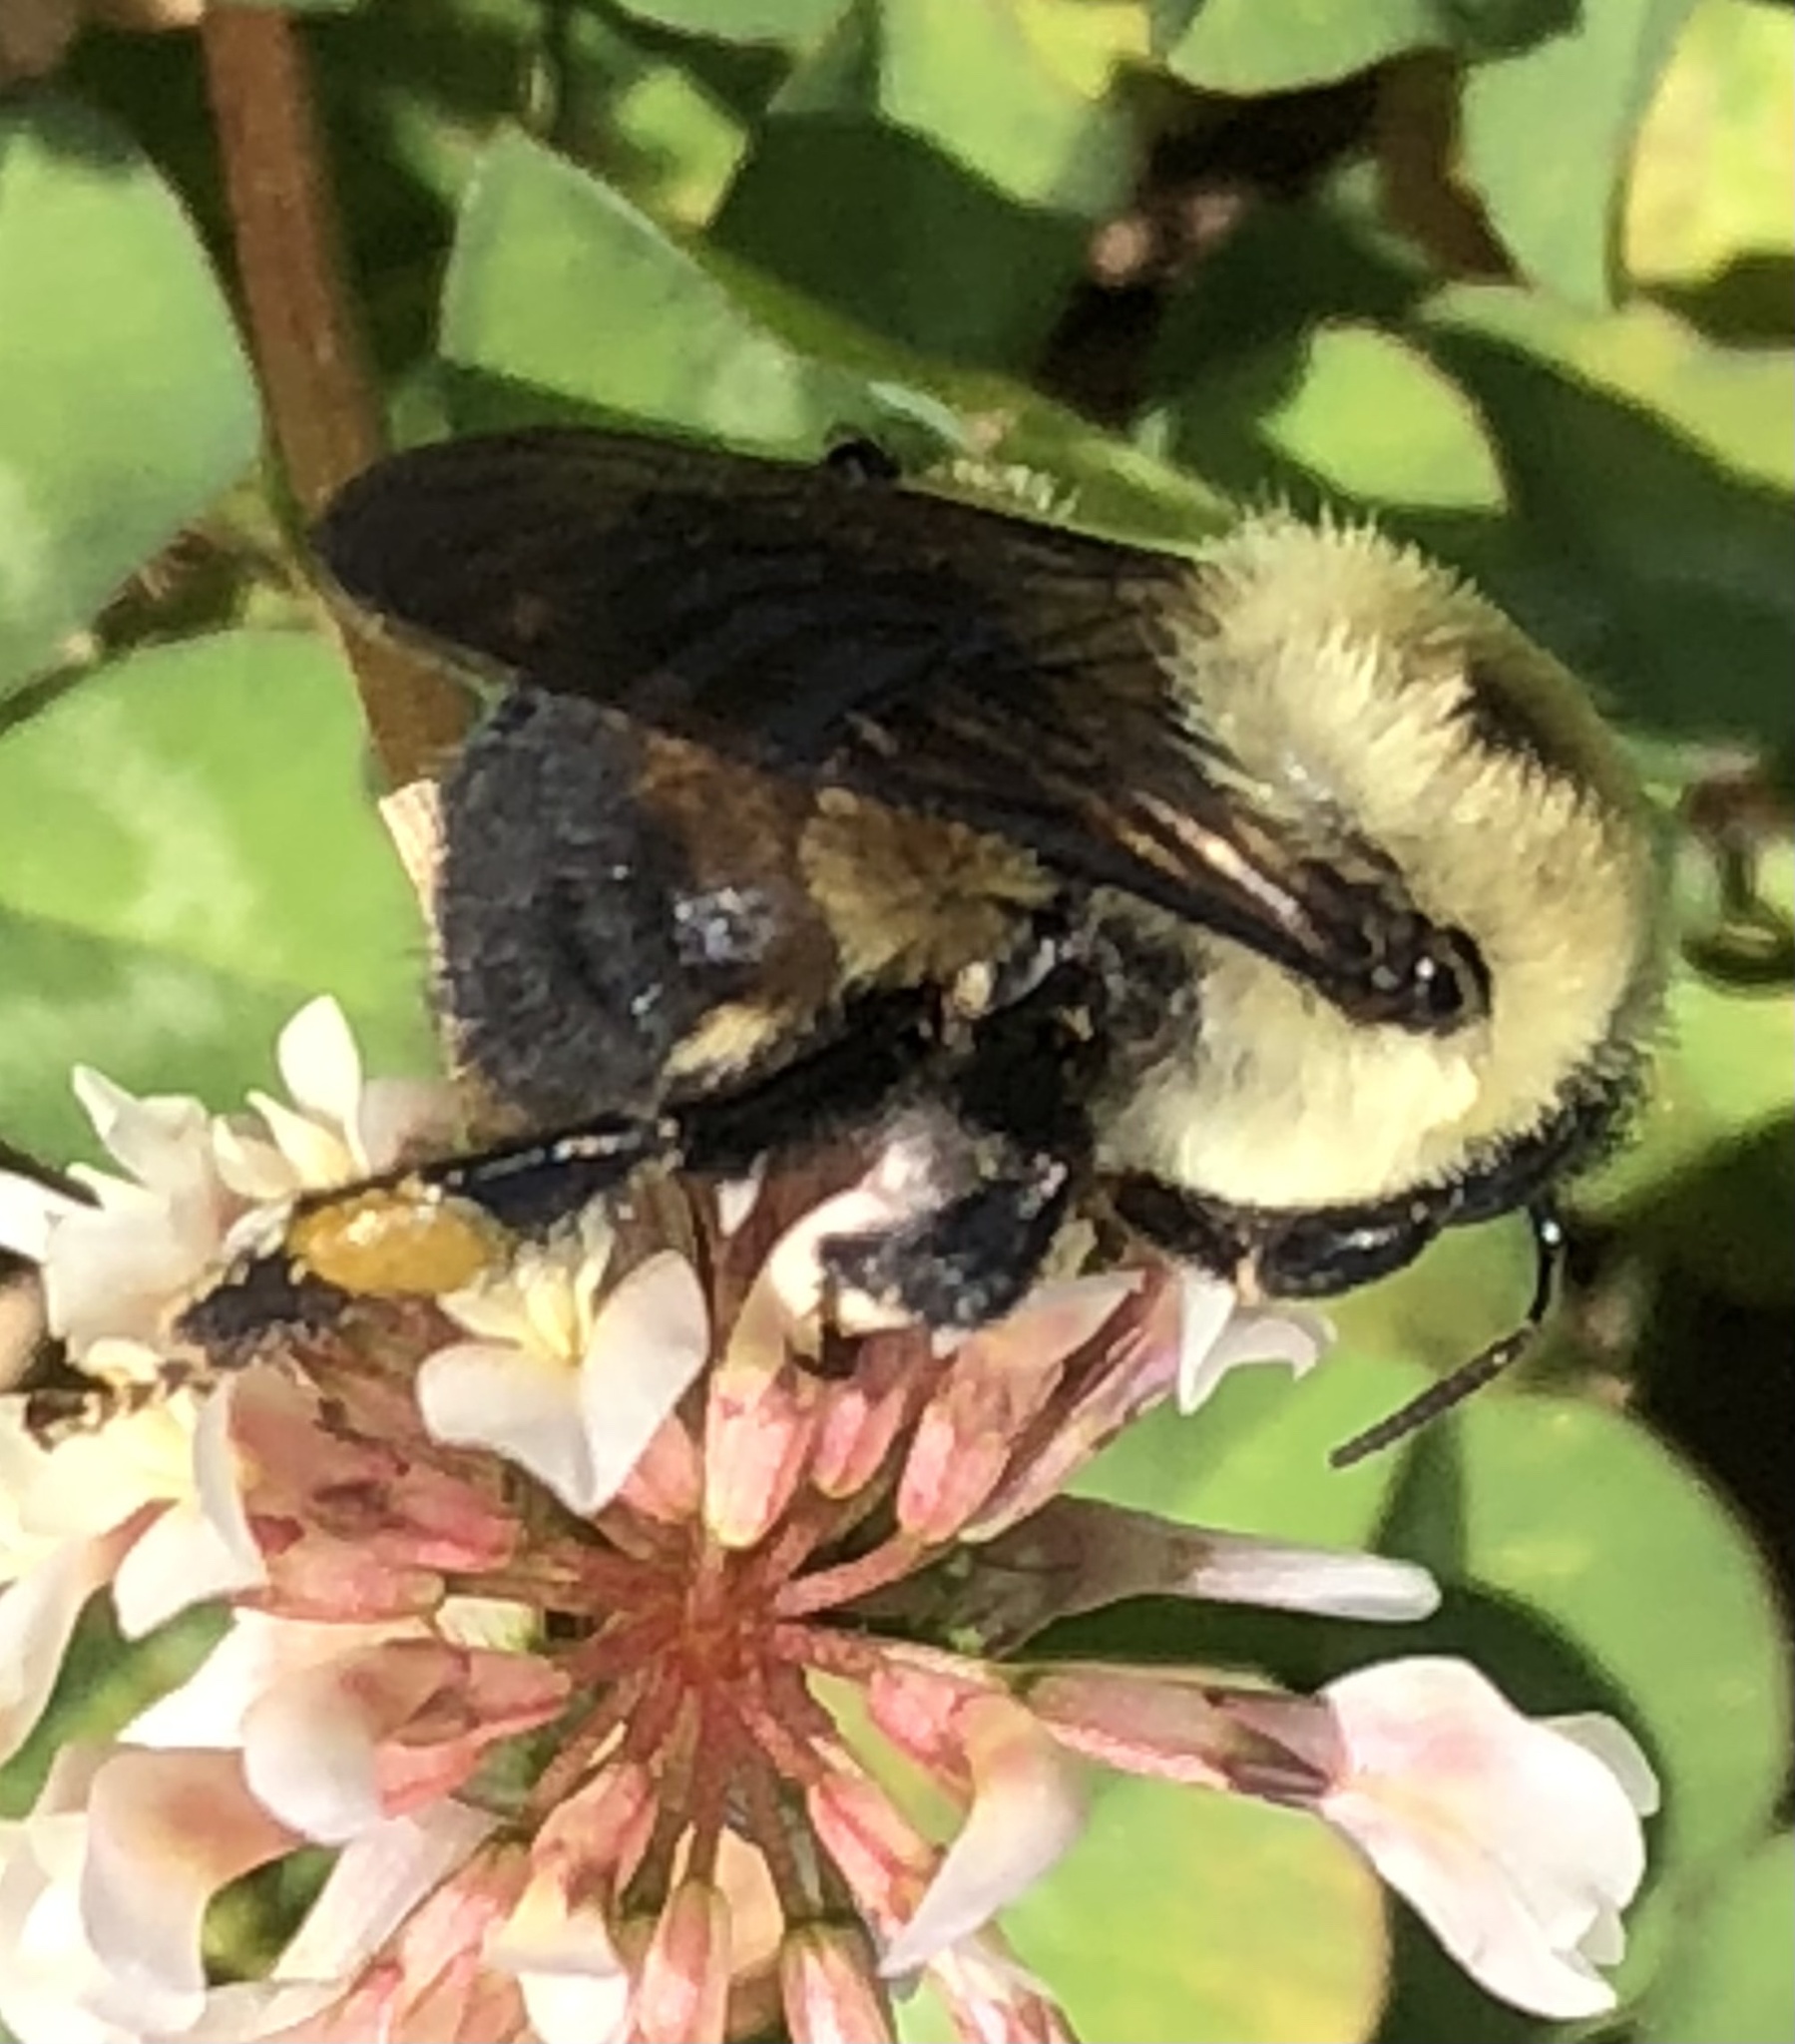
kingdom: Animalia
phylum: Arthropoda
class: Insecta
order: Hymenoptera
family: Apidae
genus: Bombus
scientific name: Bombus griseocollis
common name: Brown-belted bumble bee
